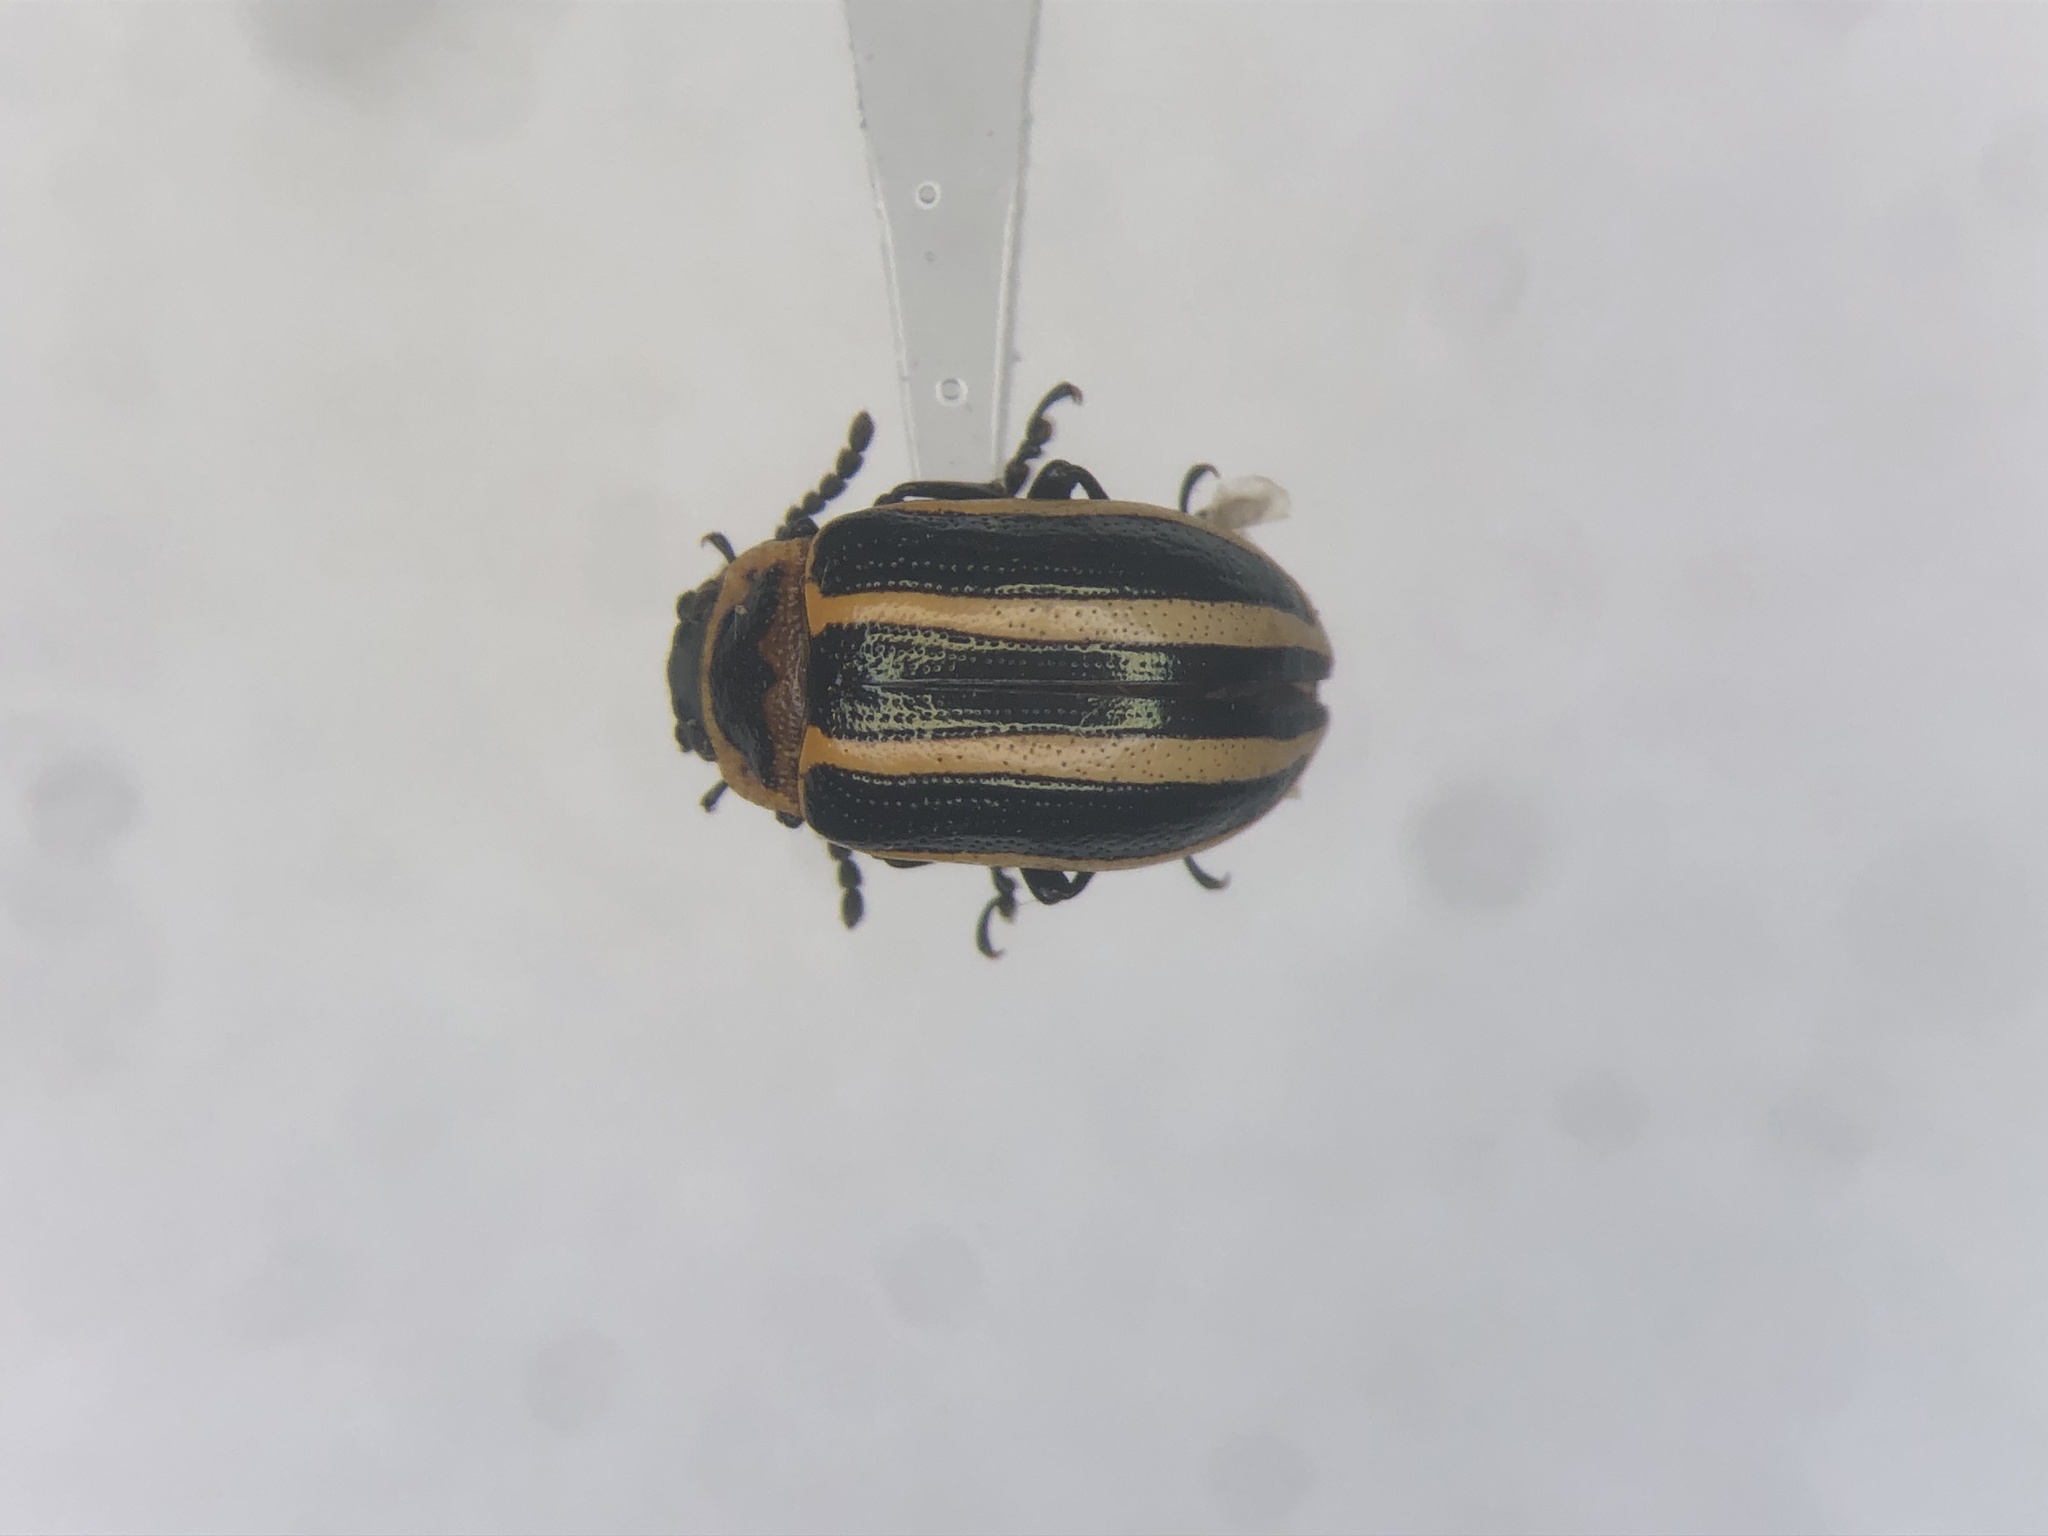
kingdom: Animalia
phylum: Arthropoda
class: Insecta
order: Coleoptera
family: Chrysomelidae
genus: Calligrapha
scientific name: Calligrapha californica
